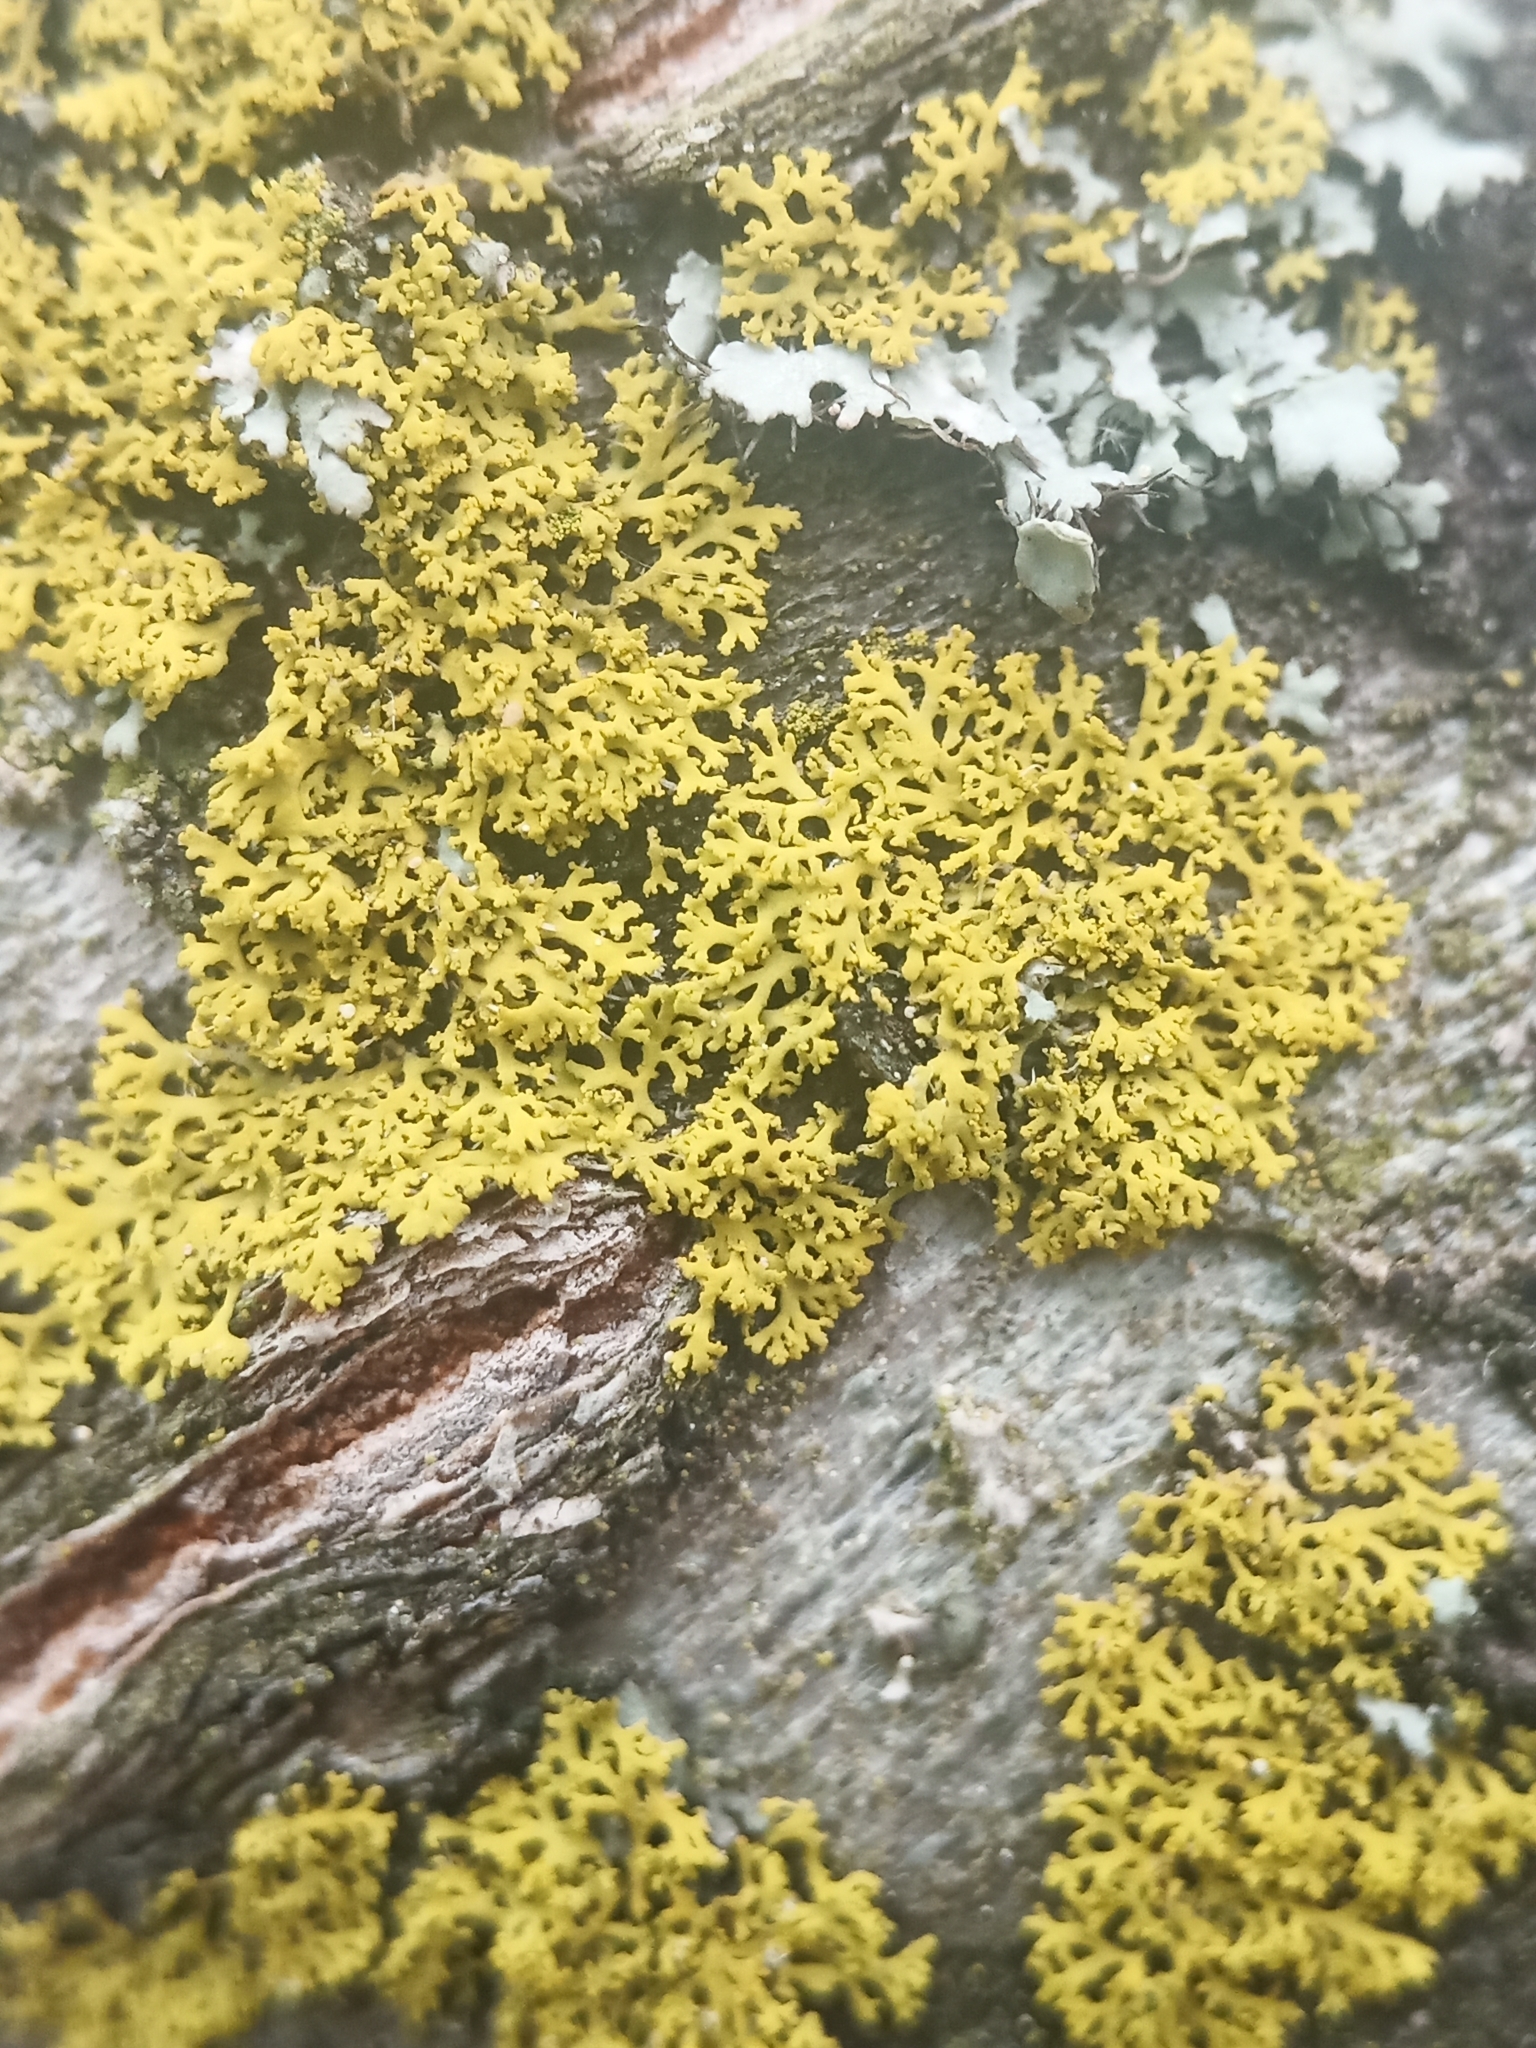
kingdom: Fungi
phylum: Ascomycota
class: Candelariomycetes
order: Candelariales
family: Candelariaceae
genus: Candelaria
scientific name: Candelaria
